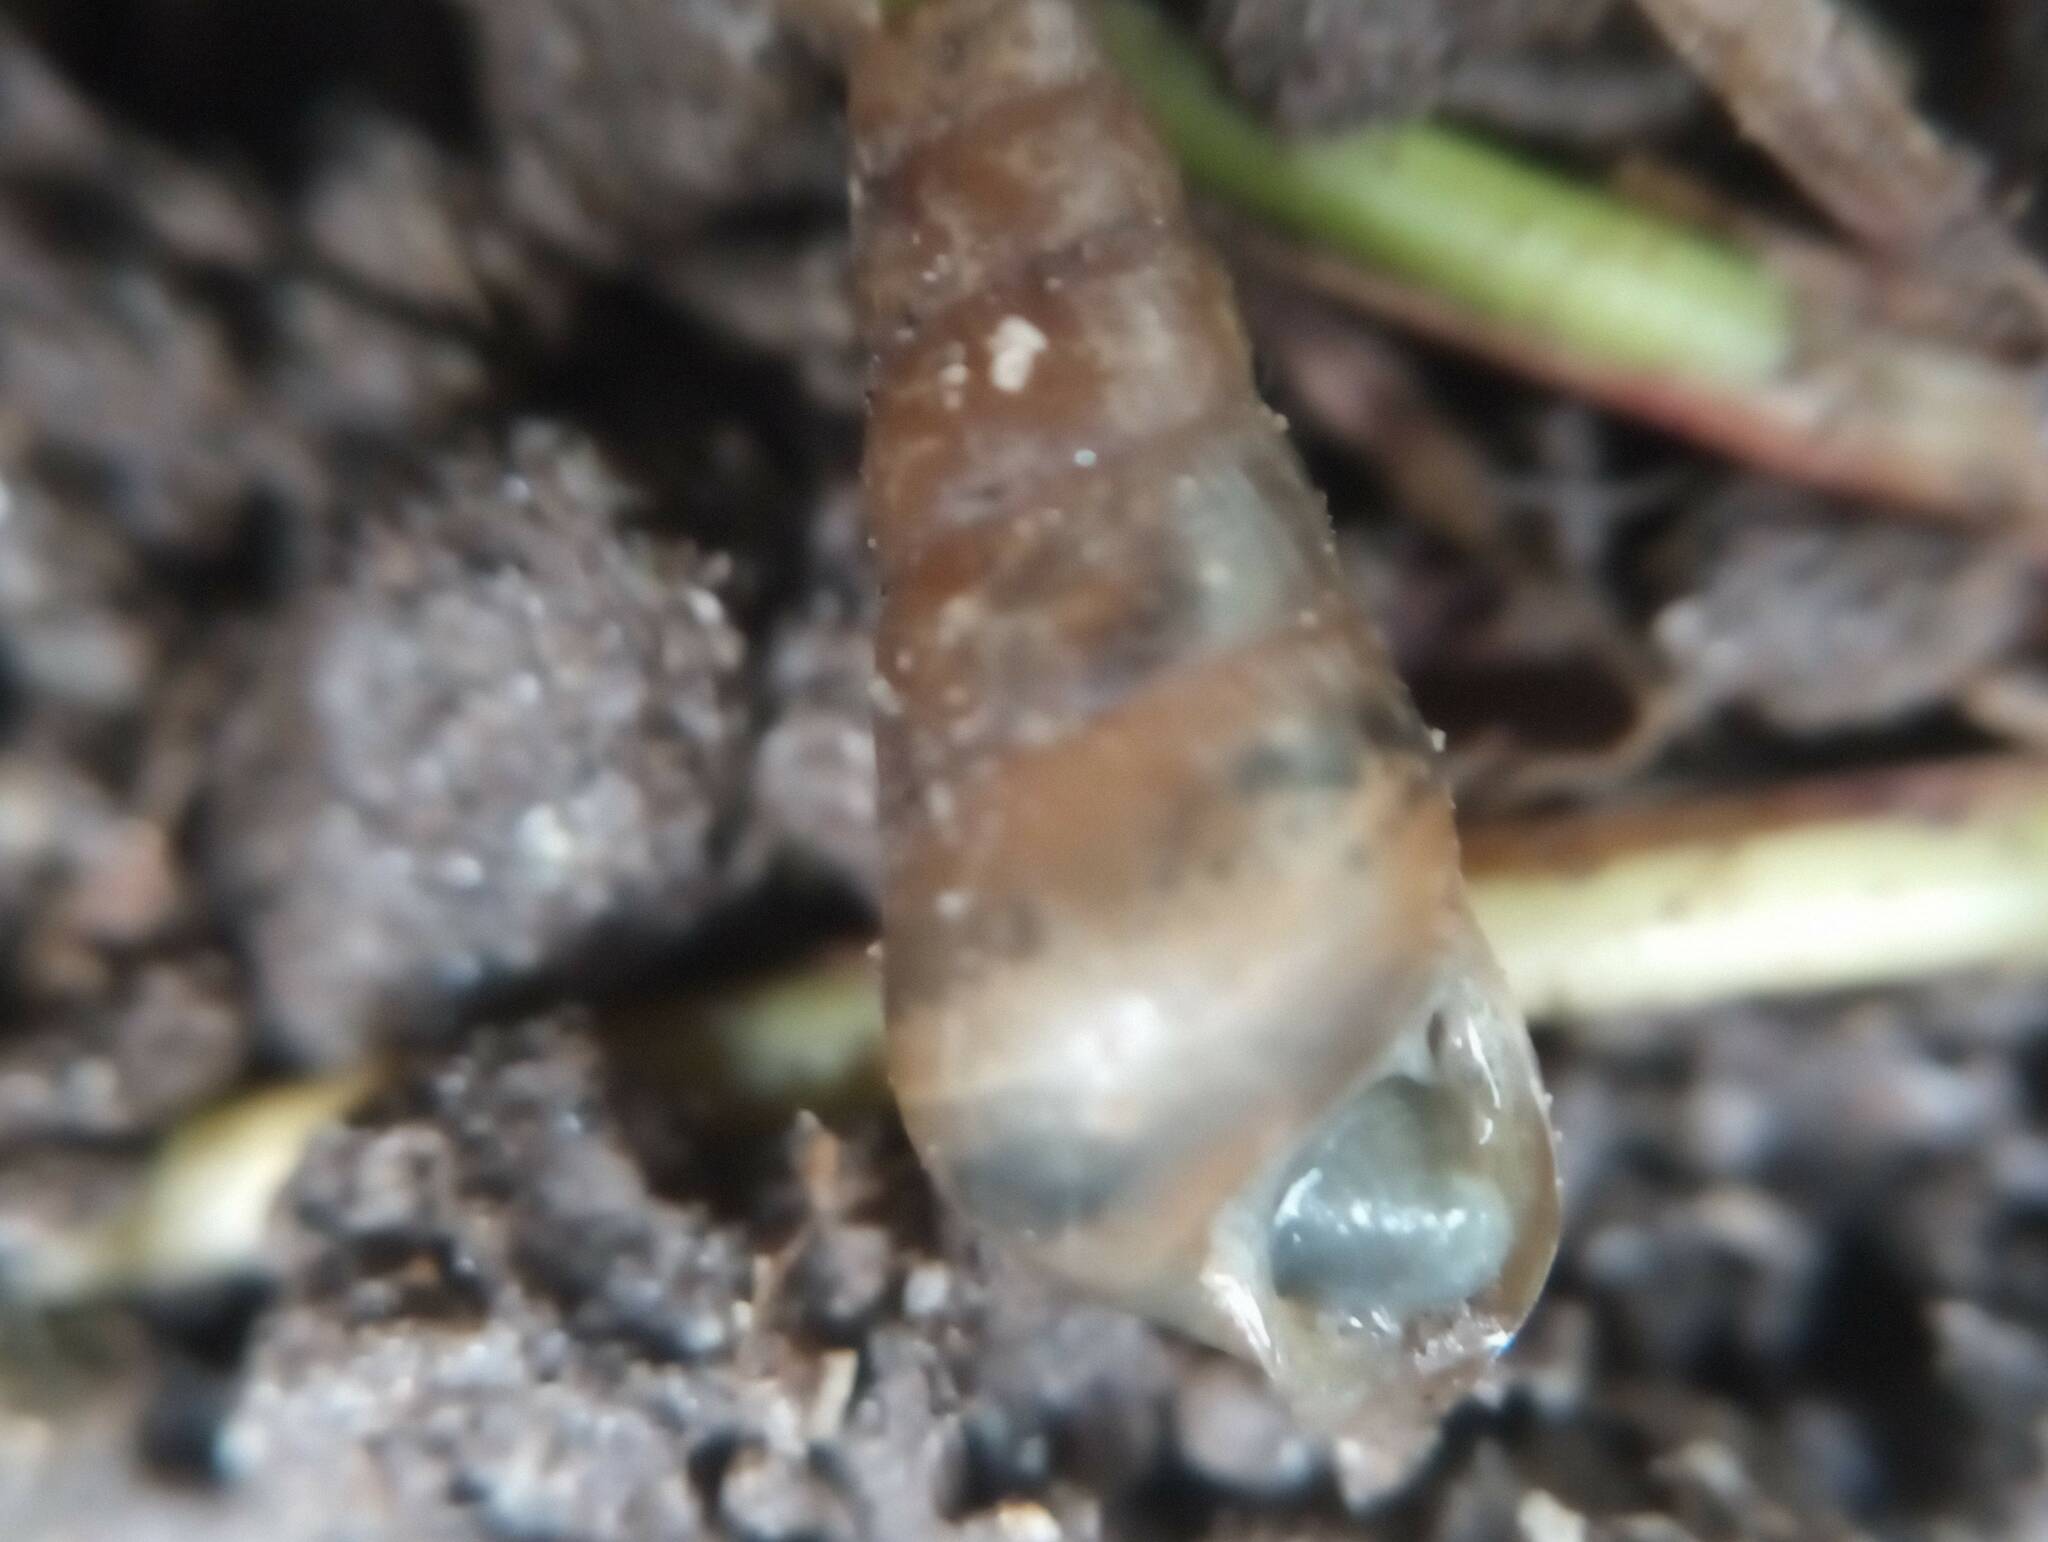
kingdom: Animalia
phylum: Mollusca
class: Gastropoda
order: Stylommatophora
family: Achatinidae
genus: Rumina
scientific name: Rumina decollata
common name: Decollate snail
